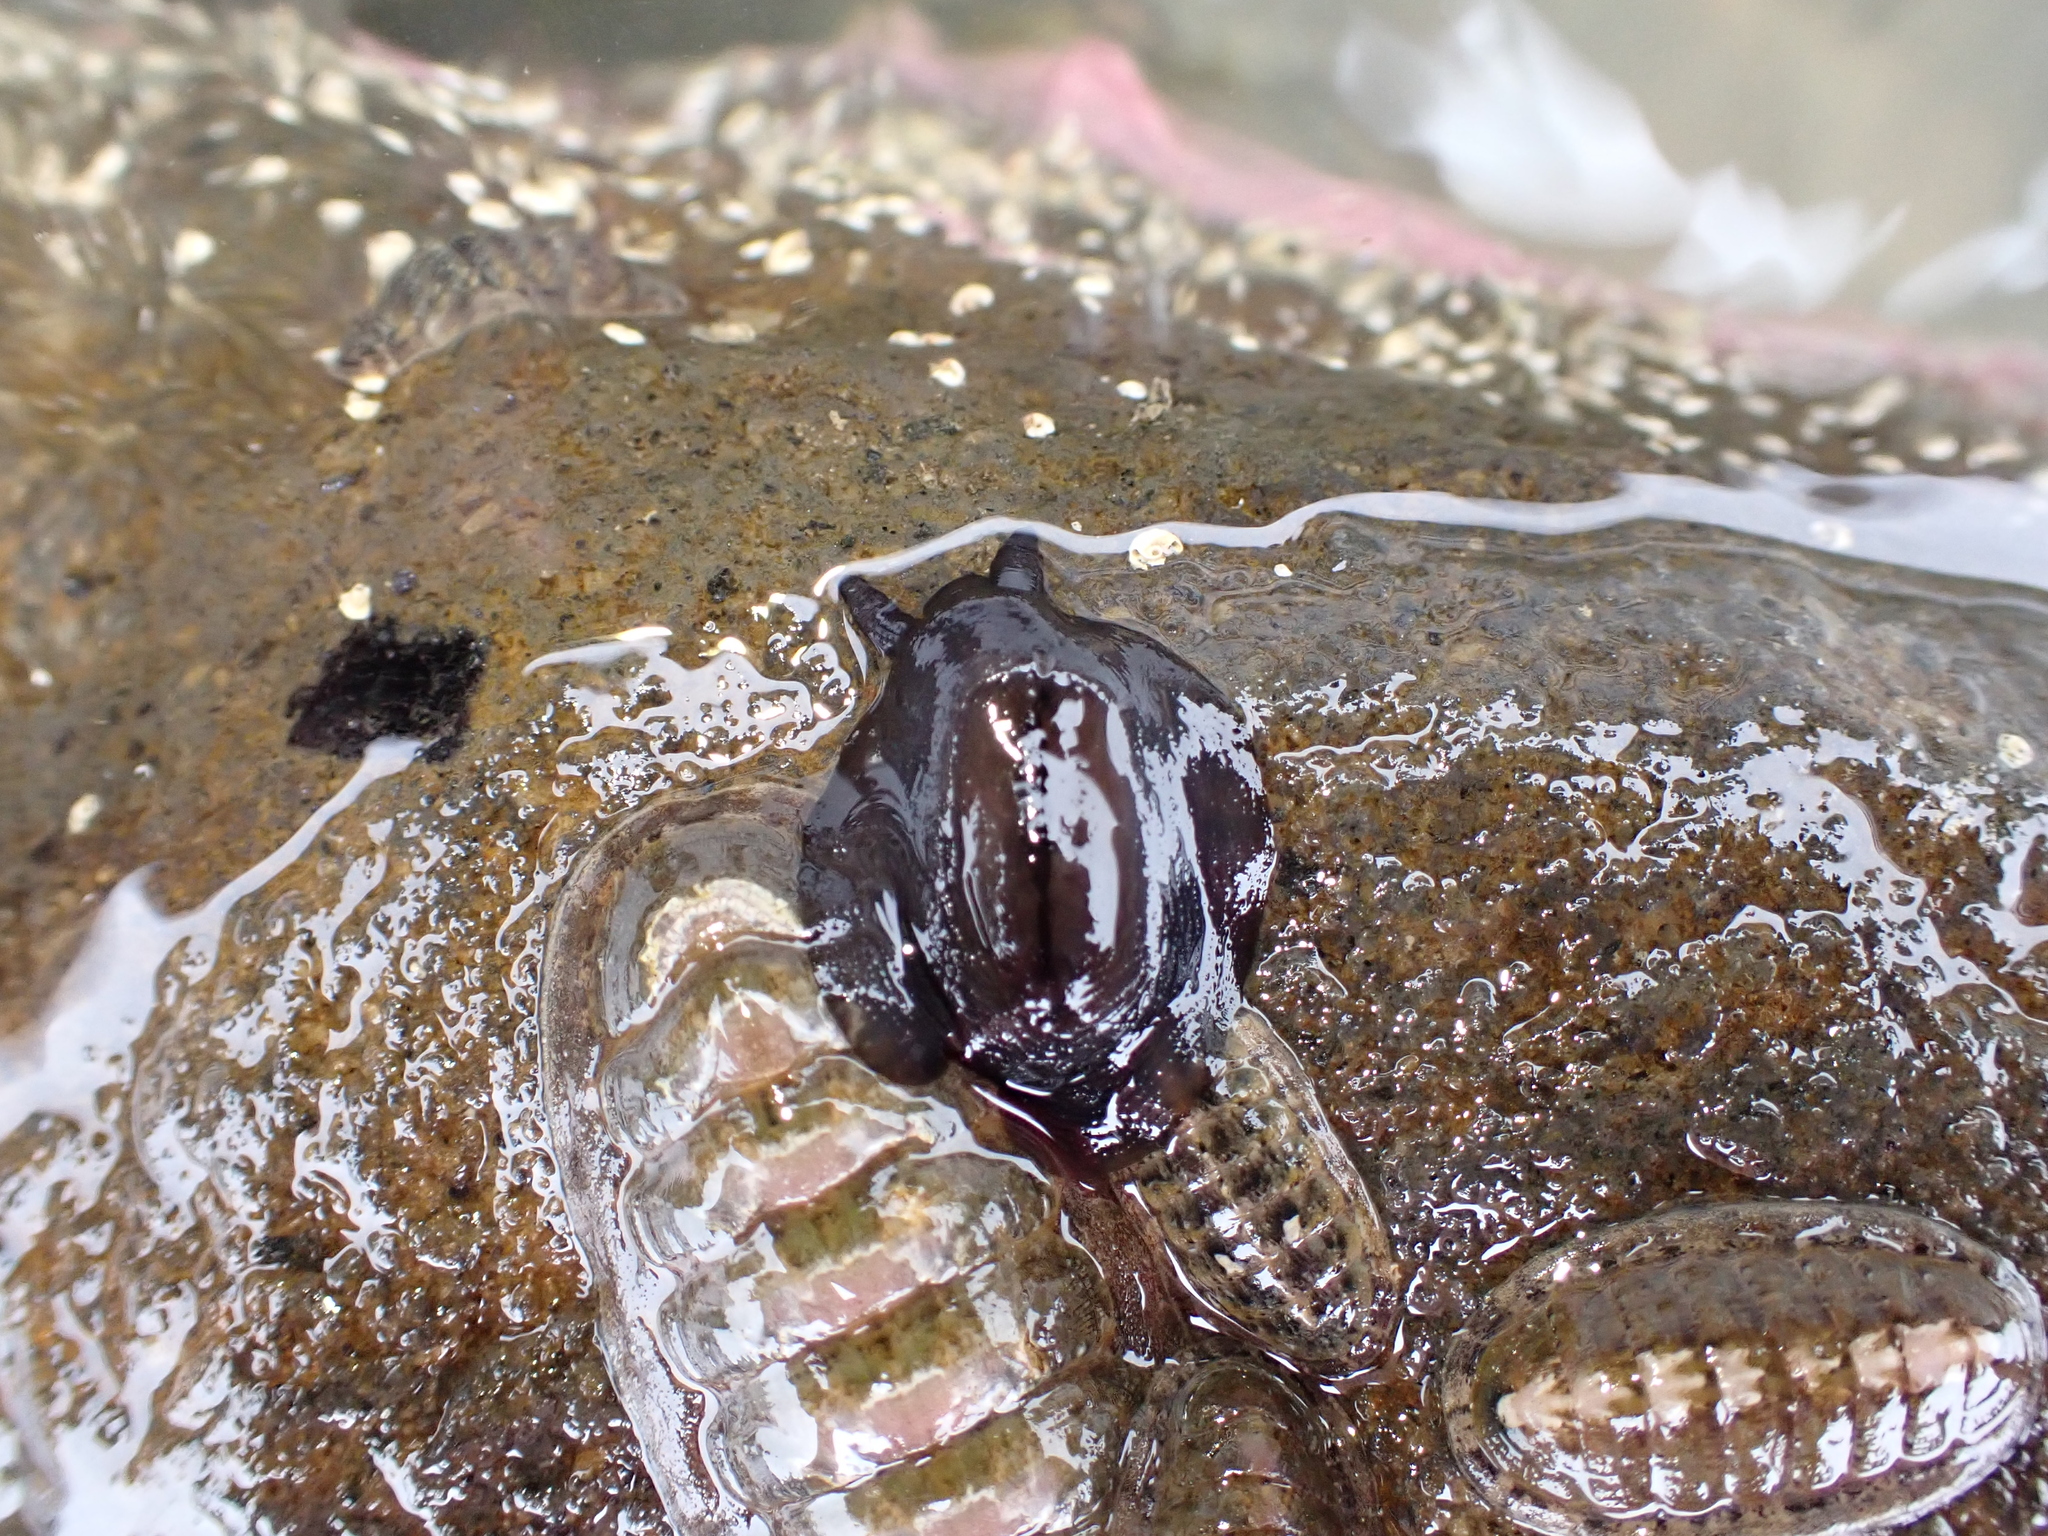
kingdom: Animalia
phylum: Mollusca
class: Gastropoda
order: Lepetellida
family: Fissurellidae
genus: Scutus
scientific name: Scutus breviculus
